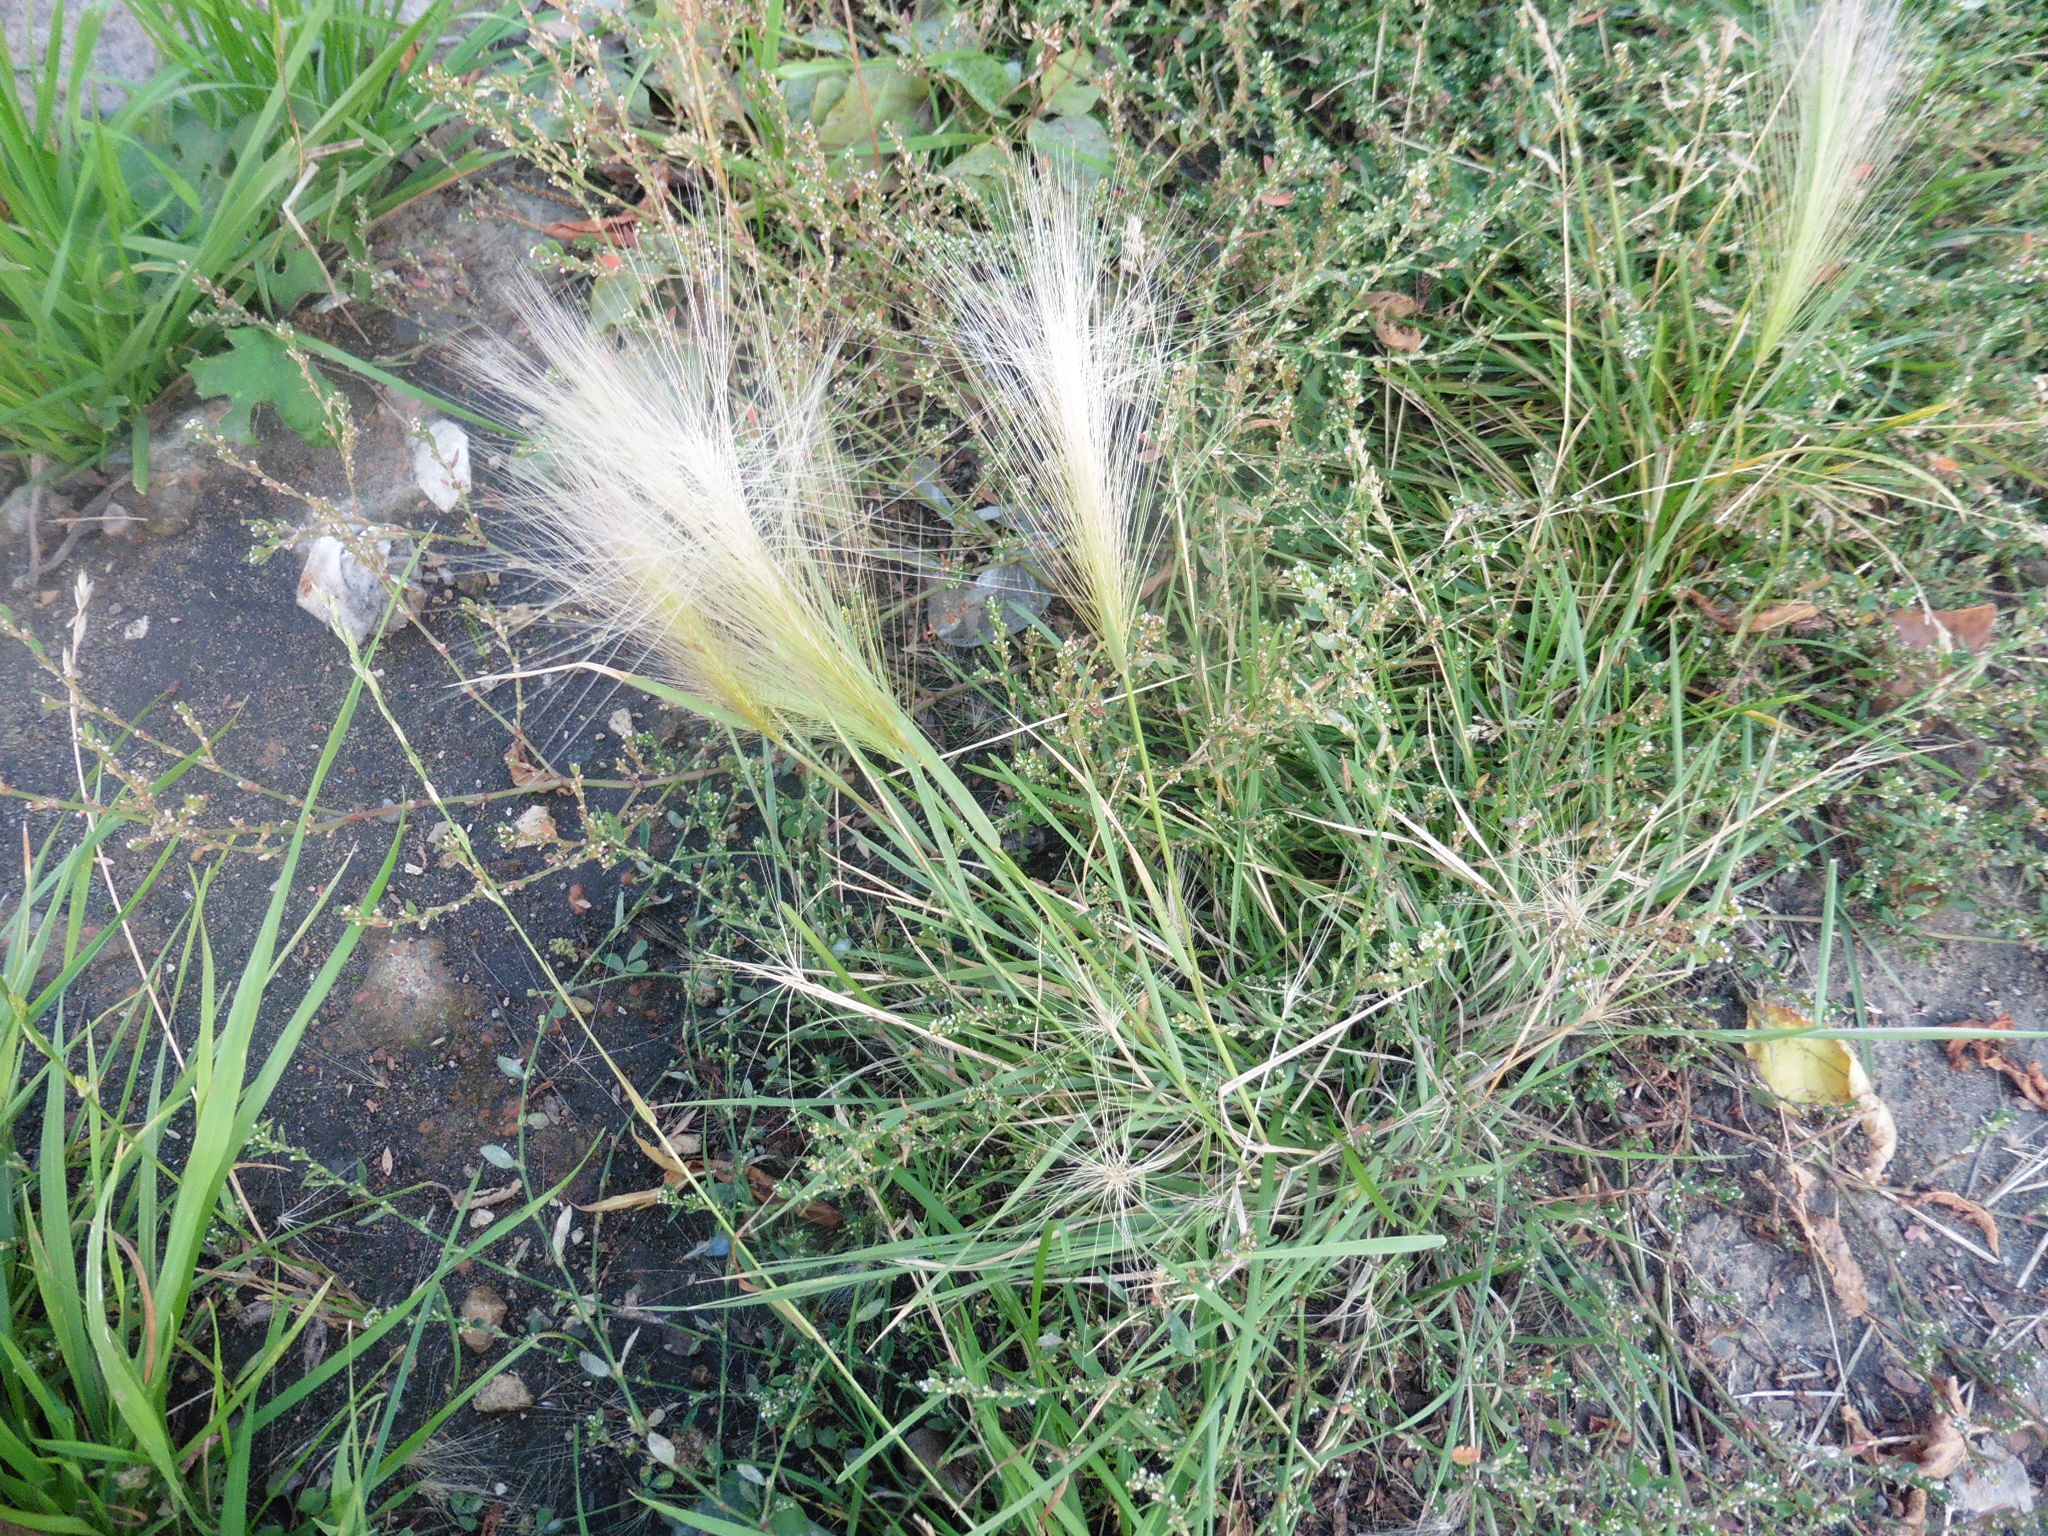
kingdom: Plantae
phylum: Tracheophyta
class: Liliopsida
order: Poales
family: Poaceae
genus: Hordeum
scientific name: Hordeum jubatum
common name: Foxtail barley
